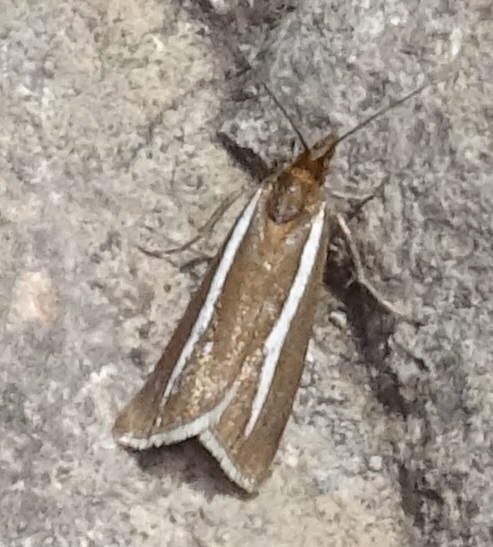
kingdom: Animalia
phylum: Arthropoda
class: Insecta
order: Lepidoptera
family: Crambidae
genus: Catoptria
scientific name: Catoptria furcatellus
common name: Northern grass-veneer
